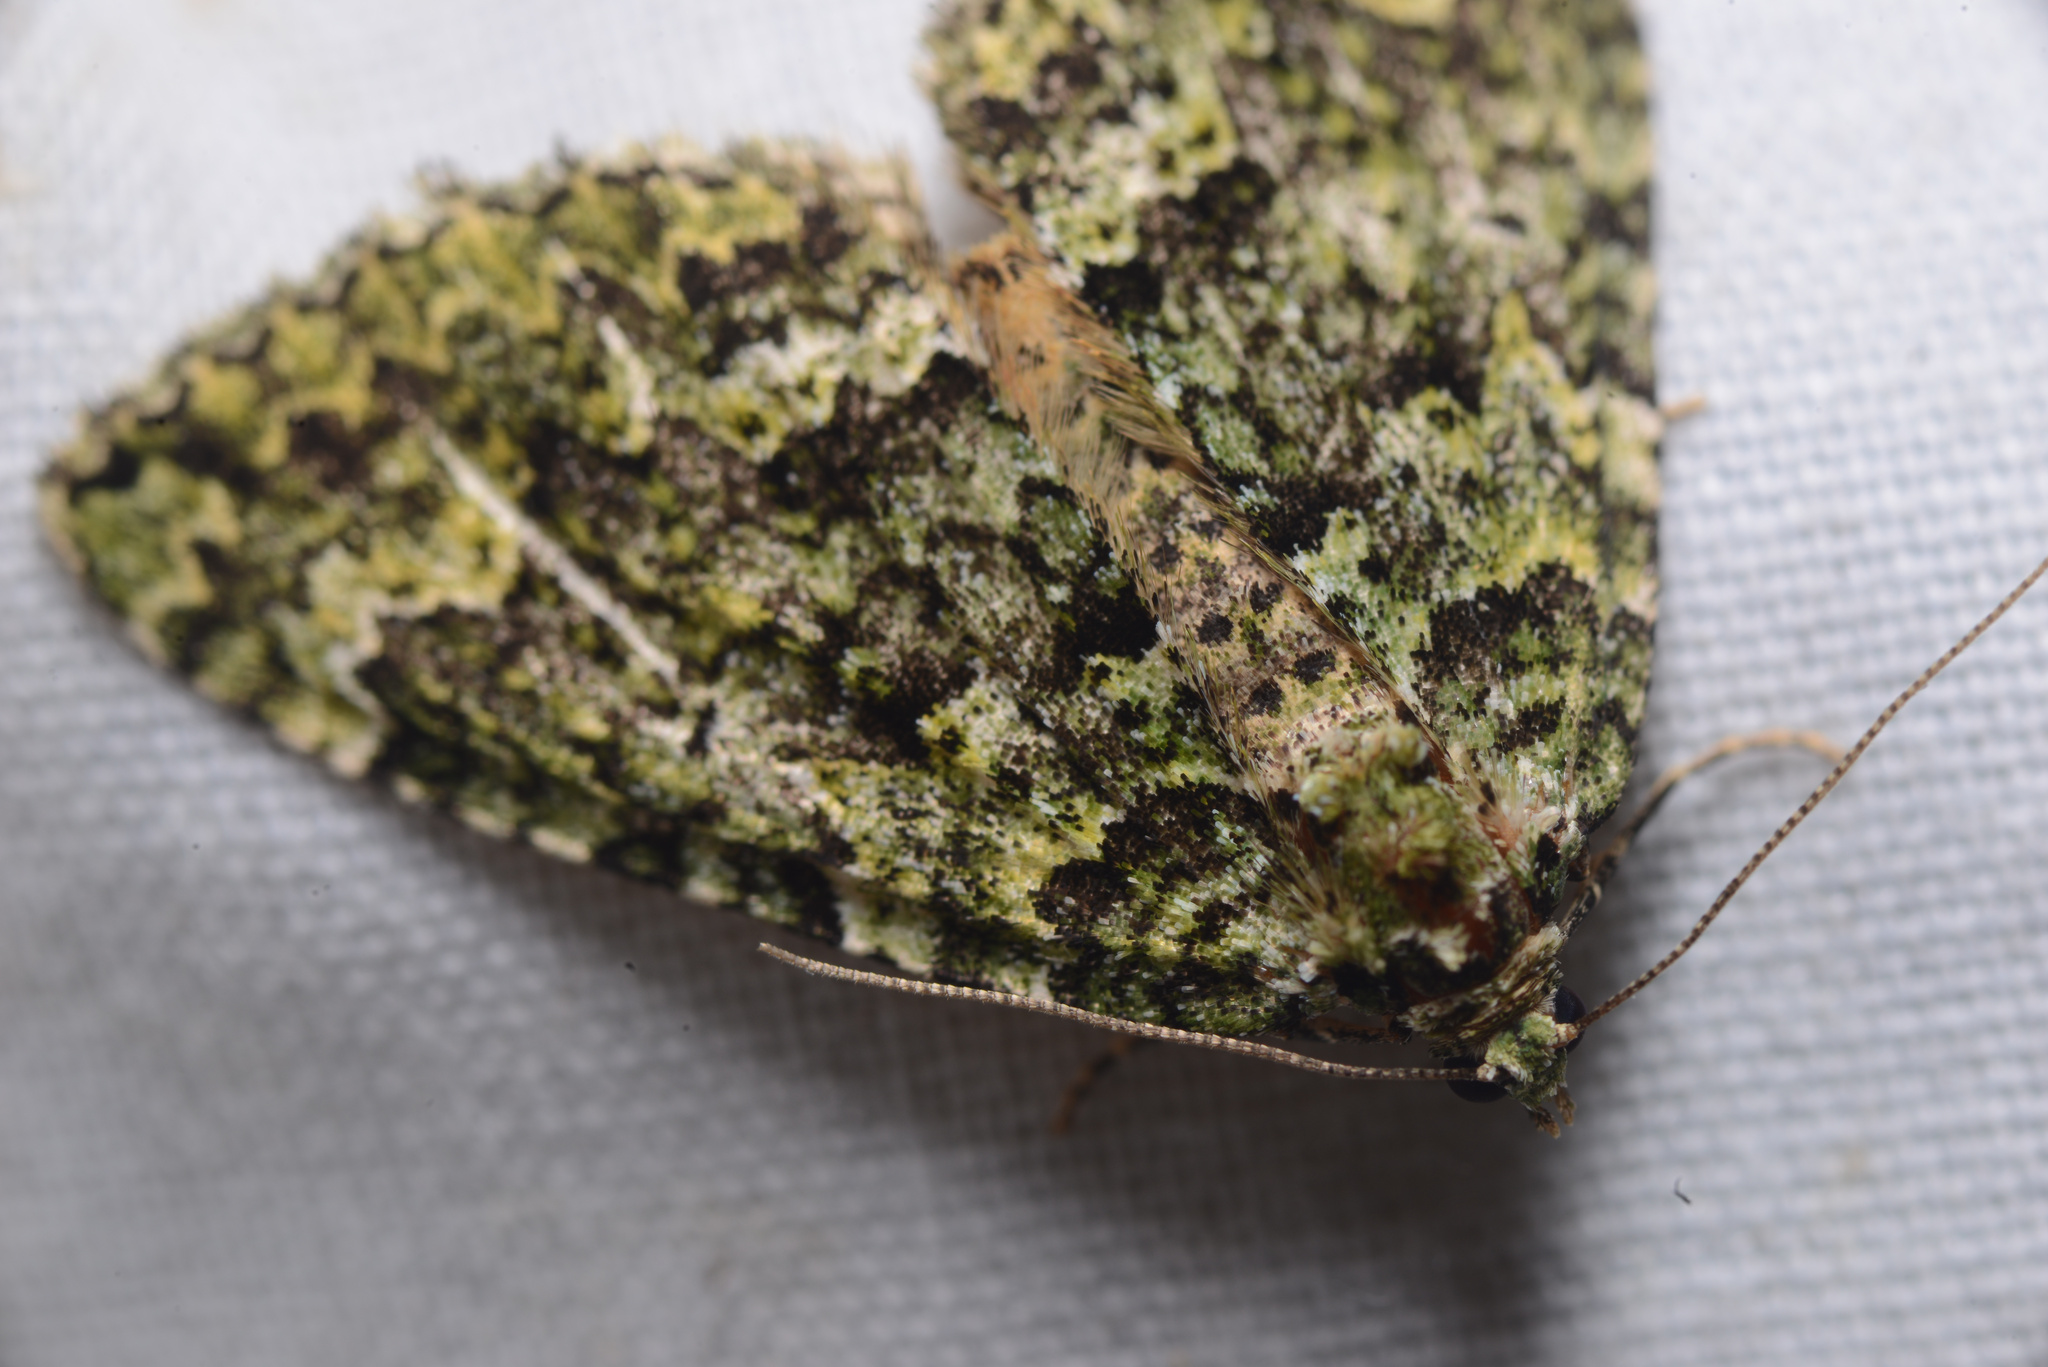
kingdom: Animalia
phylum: Arthropoda
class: Insecta
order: Lepidoptera
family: Geometridae
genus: Austrocidaria
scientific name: Austrocidaria callichlora
